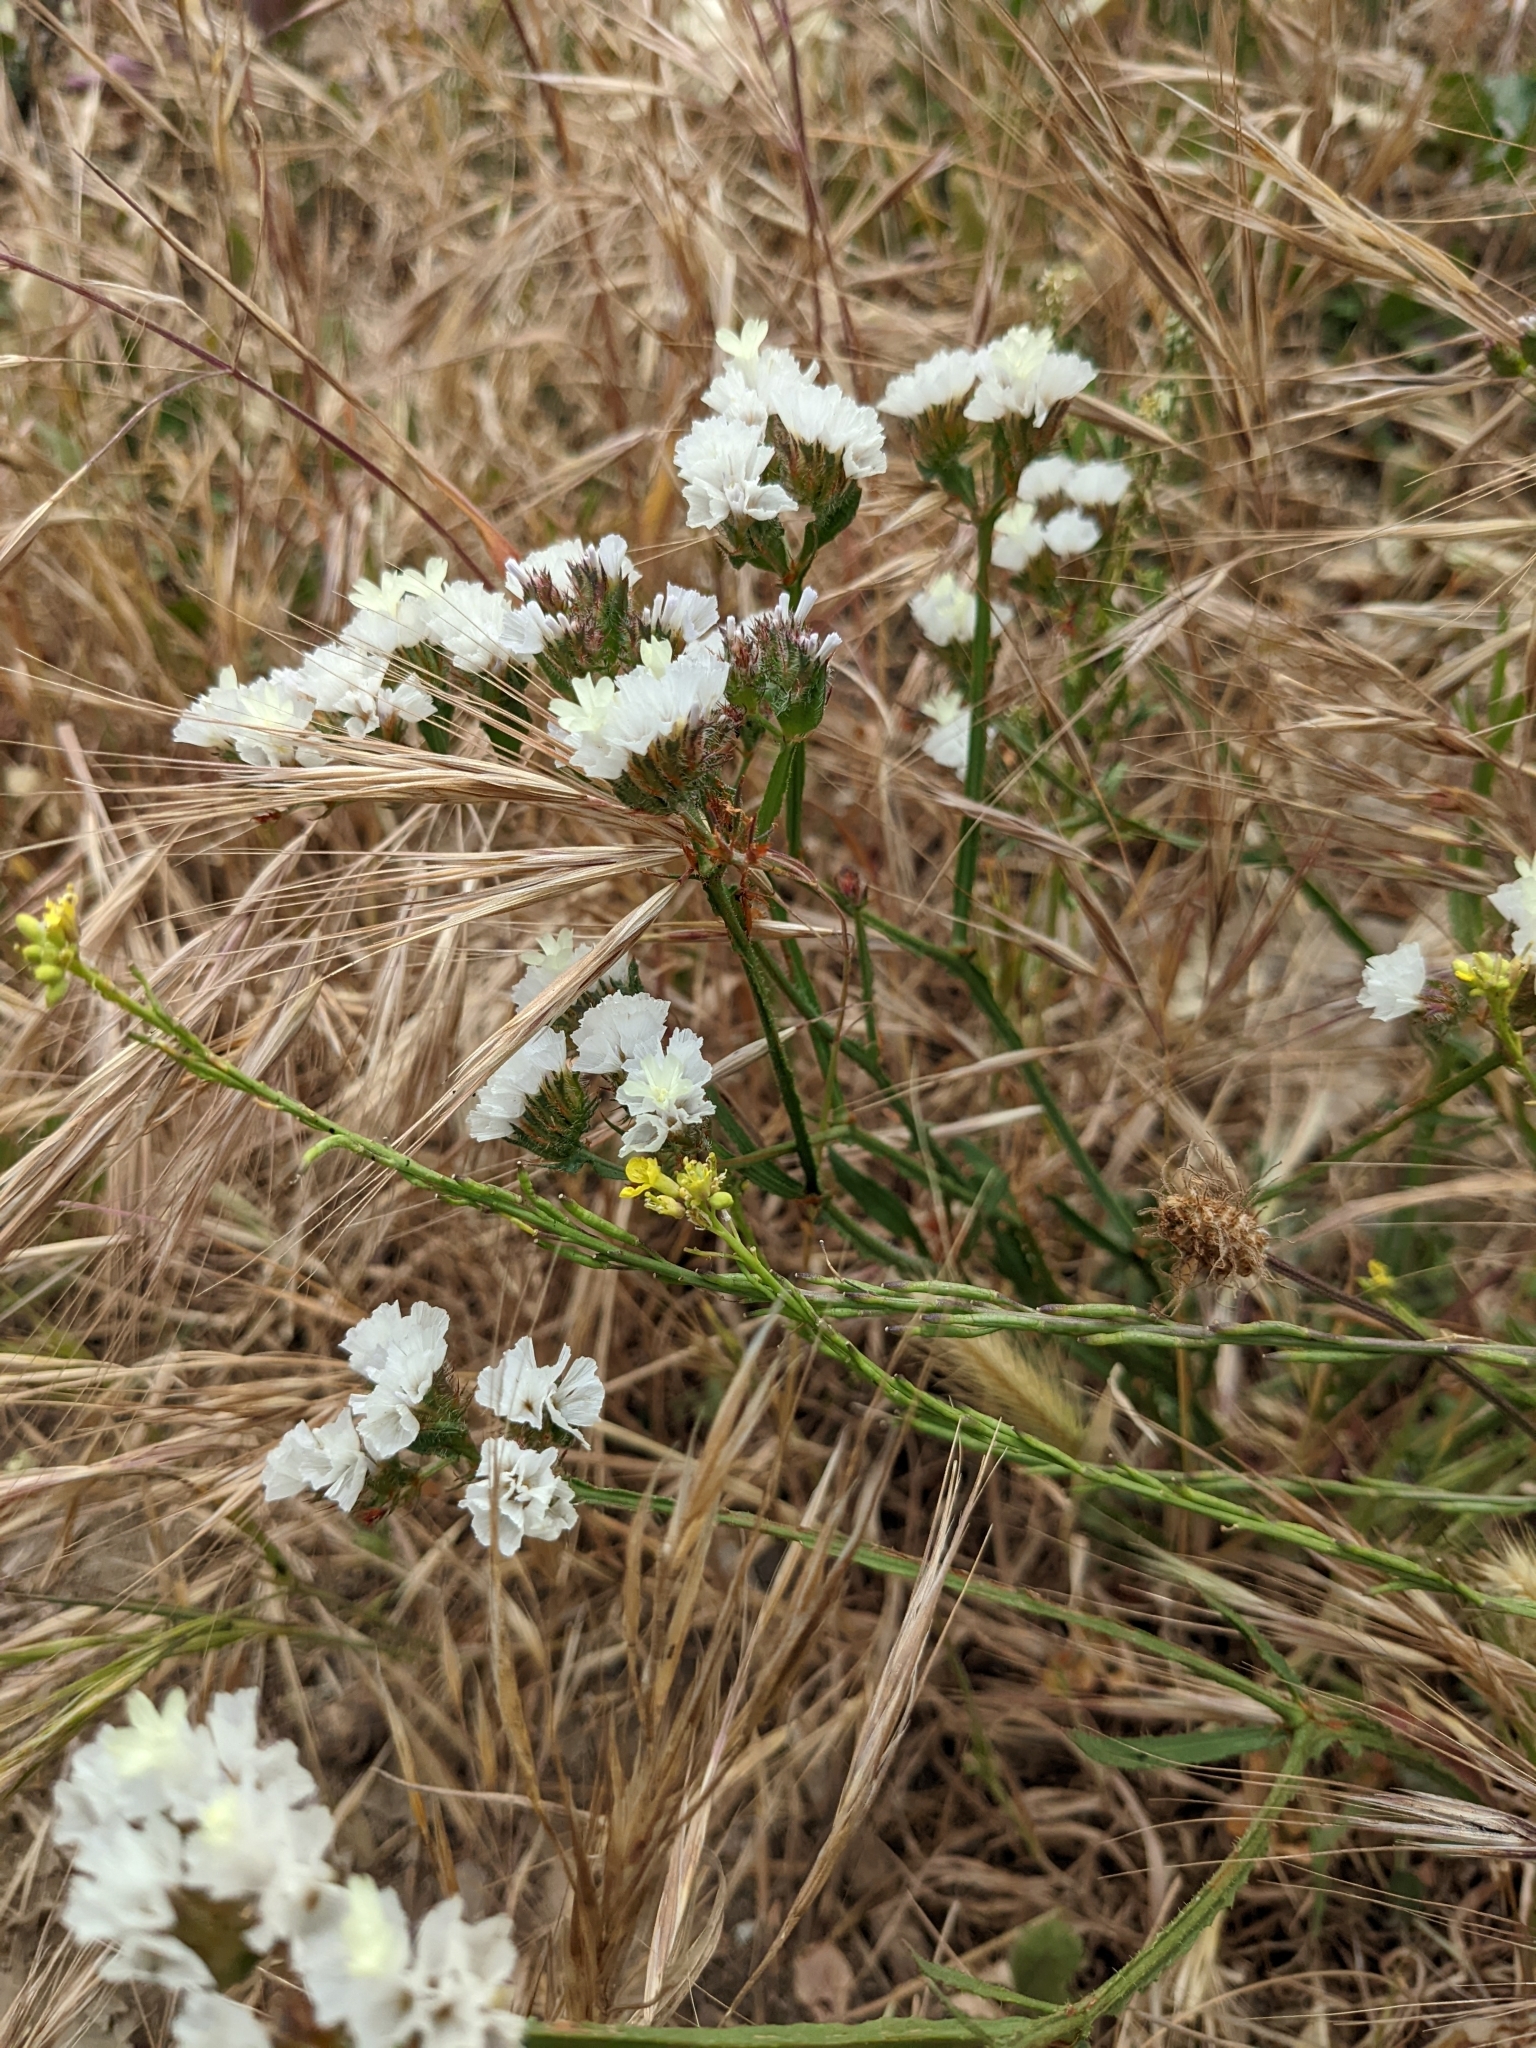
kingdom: Plantae
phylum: Tracheophyta
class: Magnoliopsida
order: Caryophyllales
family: Plumbaginaceae
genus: Limonium
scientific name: Limonium sinuatum
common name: Statice
